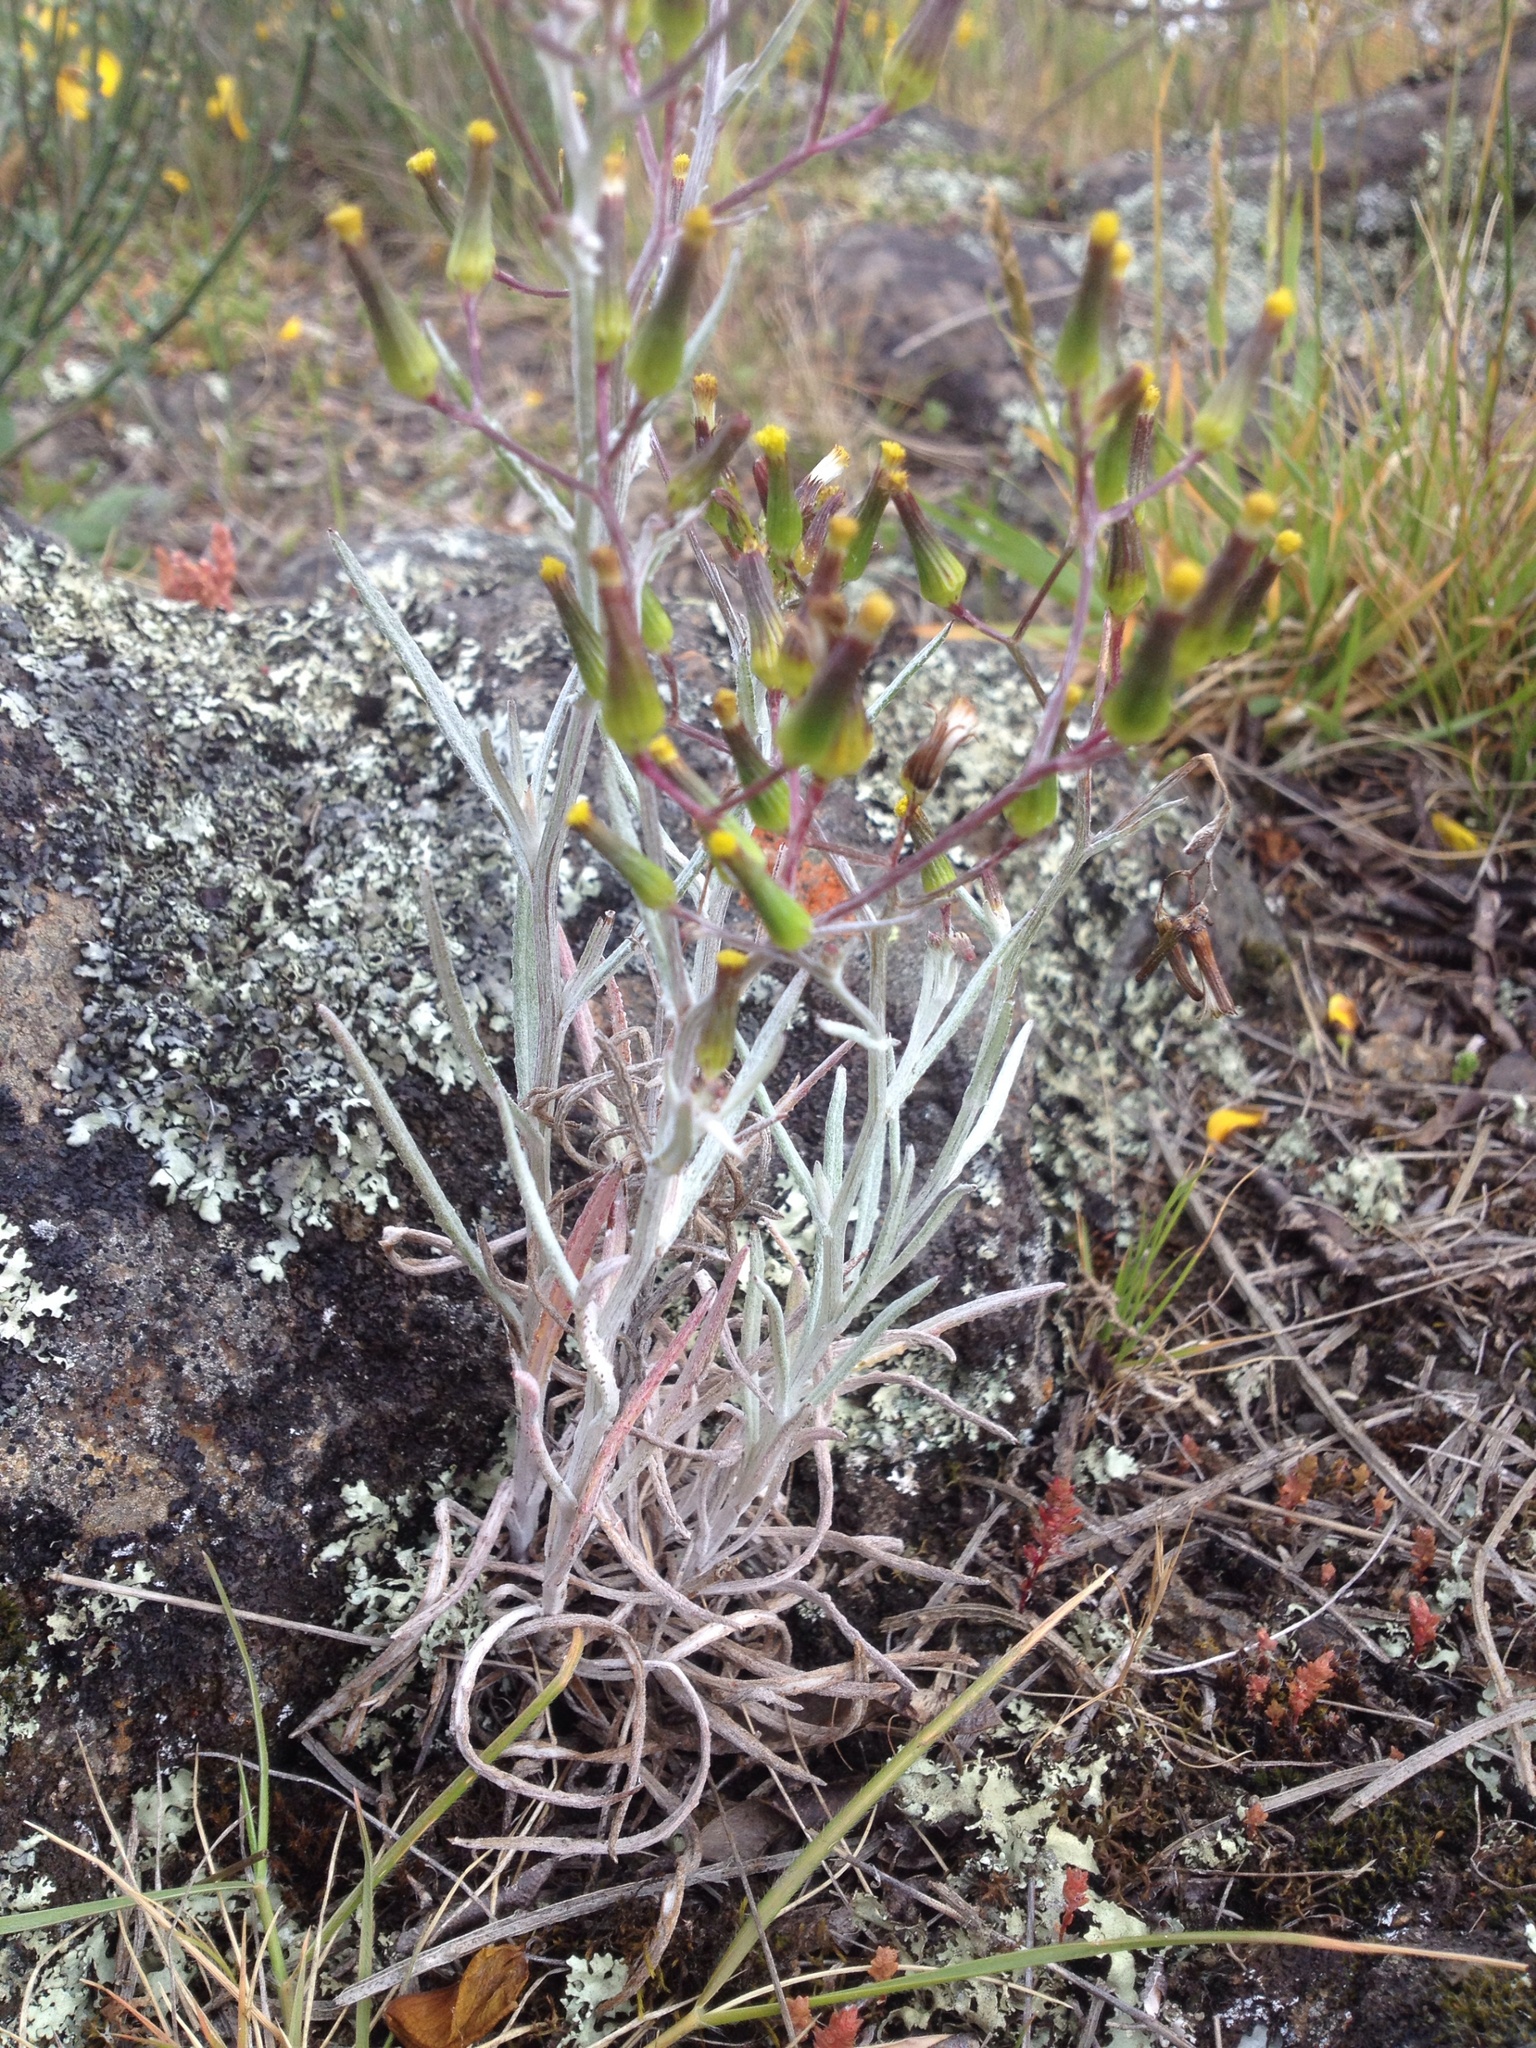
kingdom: Plantae
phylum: Tracheophyta
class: Magnoliopsida
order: Asterales
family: Asteraceae
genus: Senecio
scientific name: Senecio quadridentatus
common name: Cotton fireweed
